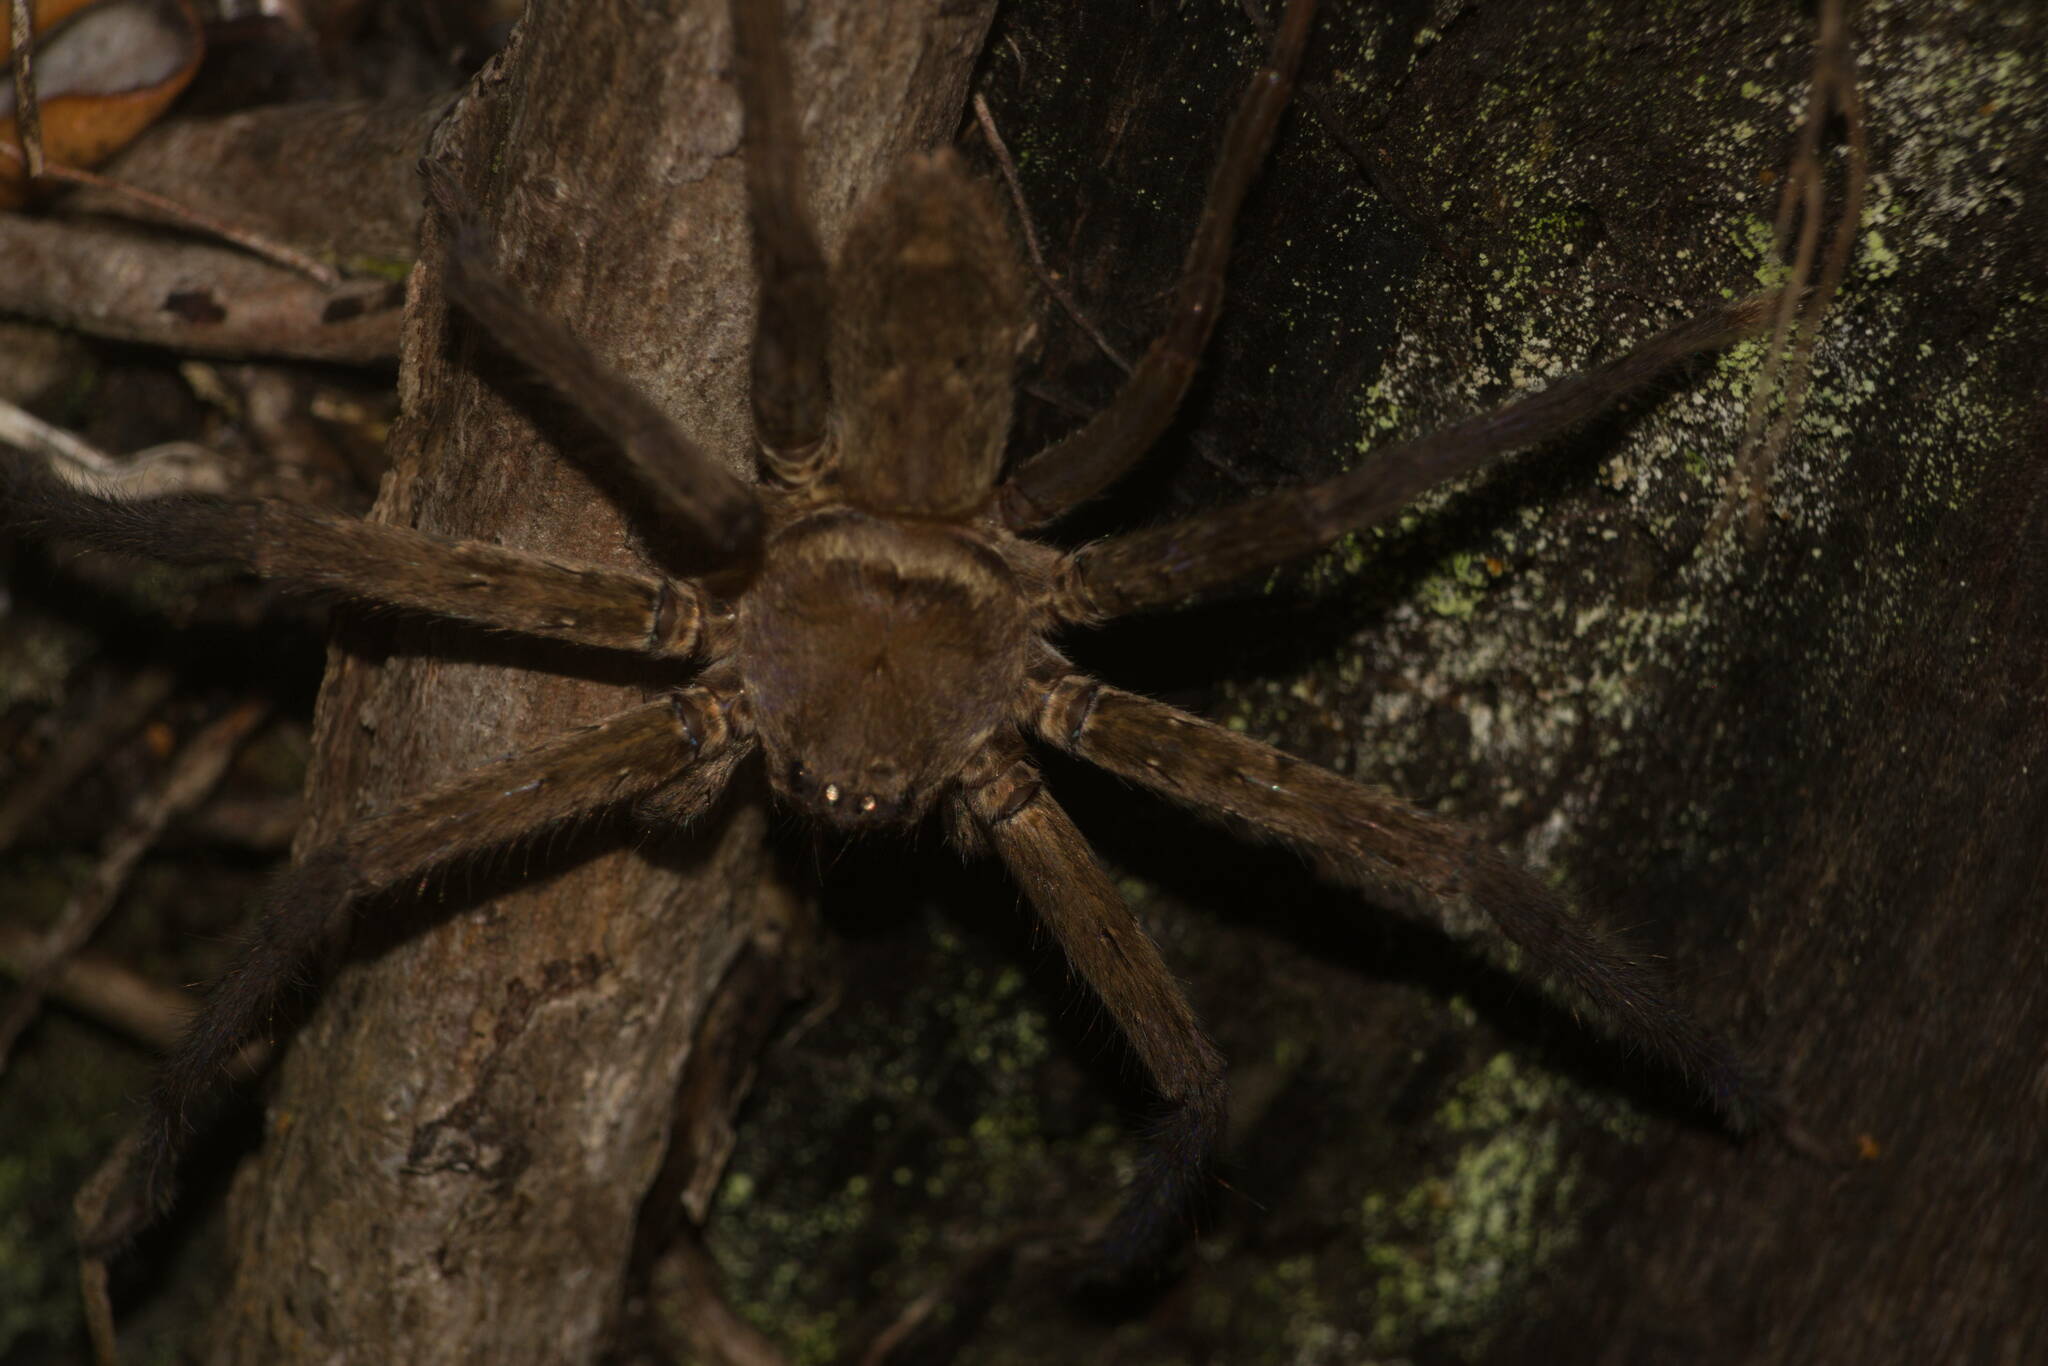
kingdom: Animalia
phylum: Arthropoda
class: Arachnida
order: Araneae
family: Sparassidae
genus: Heteropoda
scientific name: Heteropoda venatoria
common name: Huntsman spider
